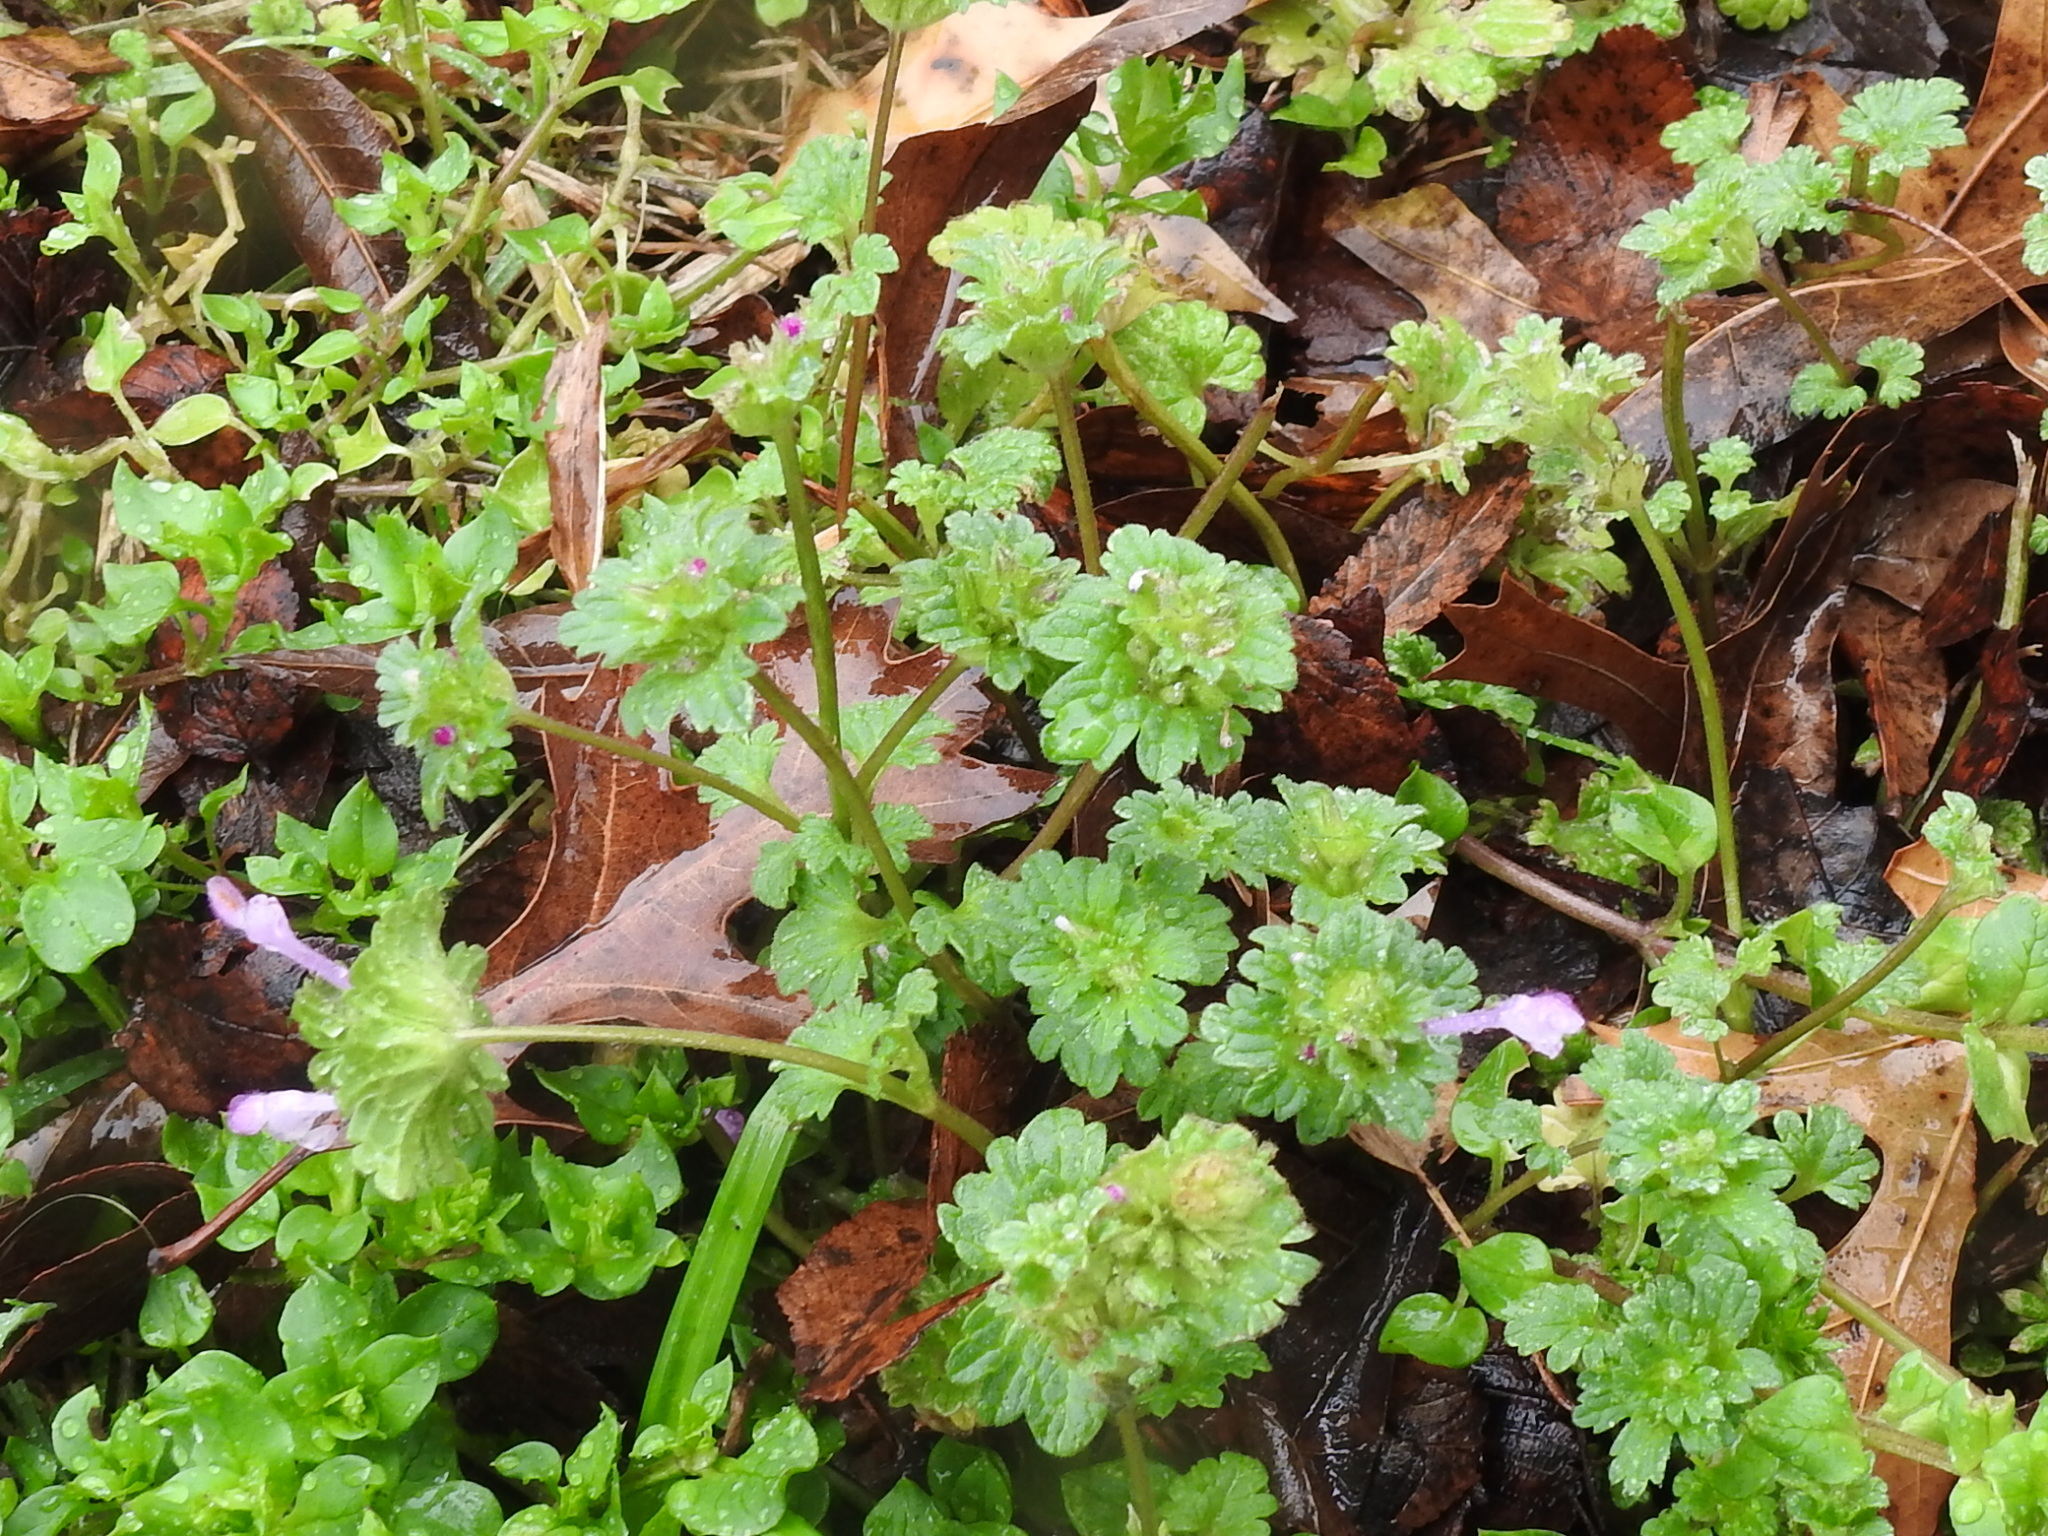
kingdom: Plantae
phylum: Tracheophyta
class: Magnoliopsida
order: Lamiales
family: Lamiaceae
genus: Lamium
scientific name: Lamium amplexicaule
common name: Henbit dead-nettle
